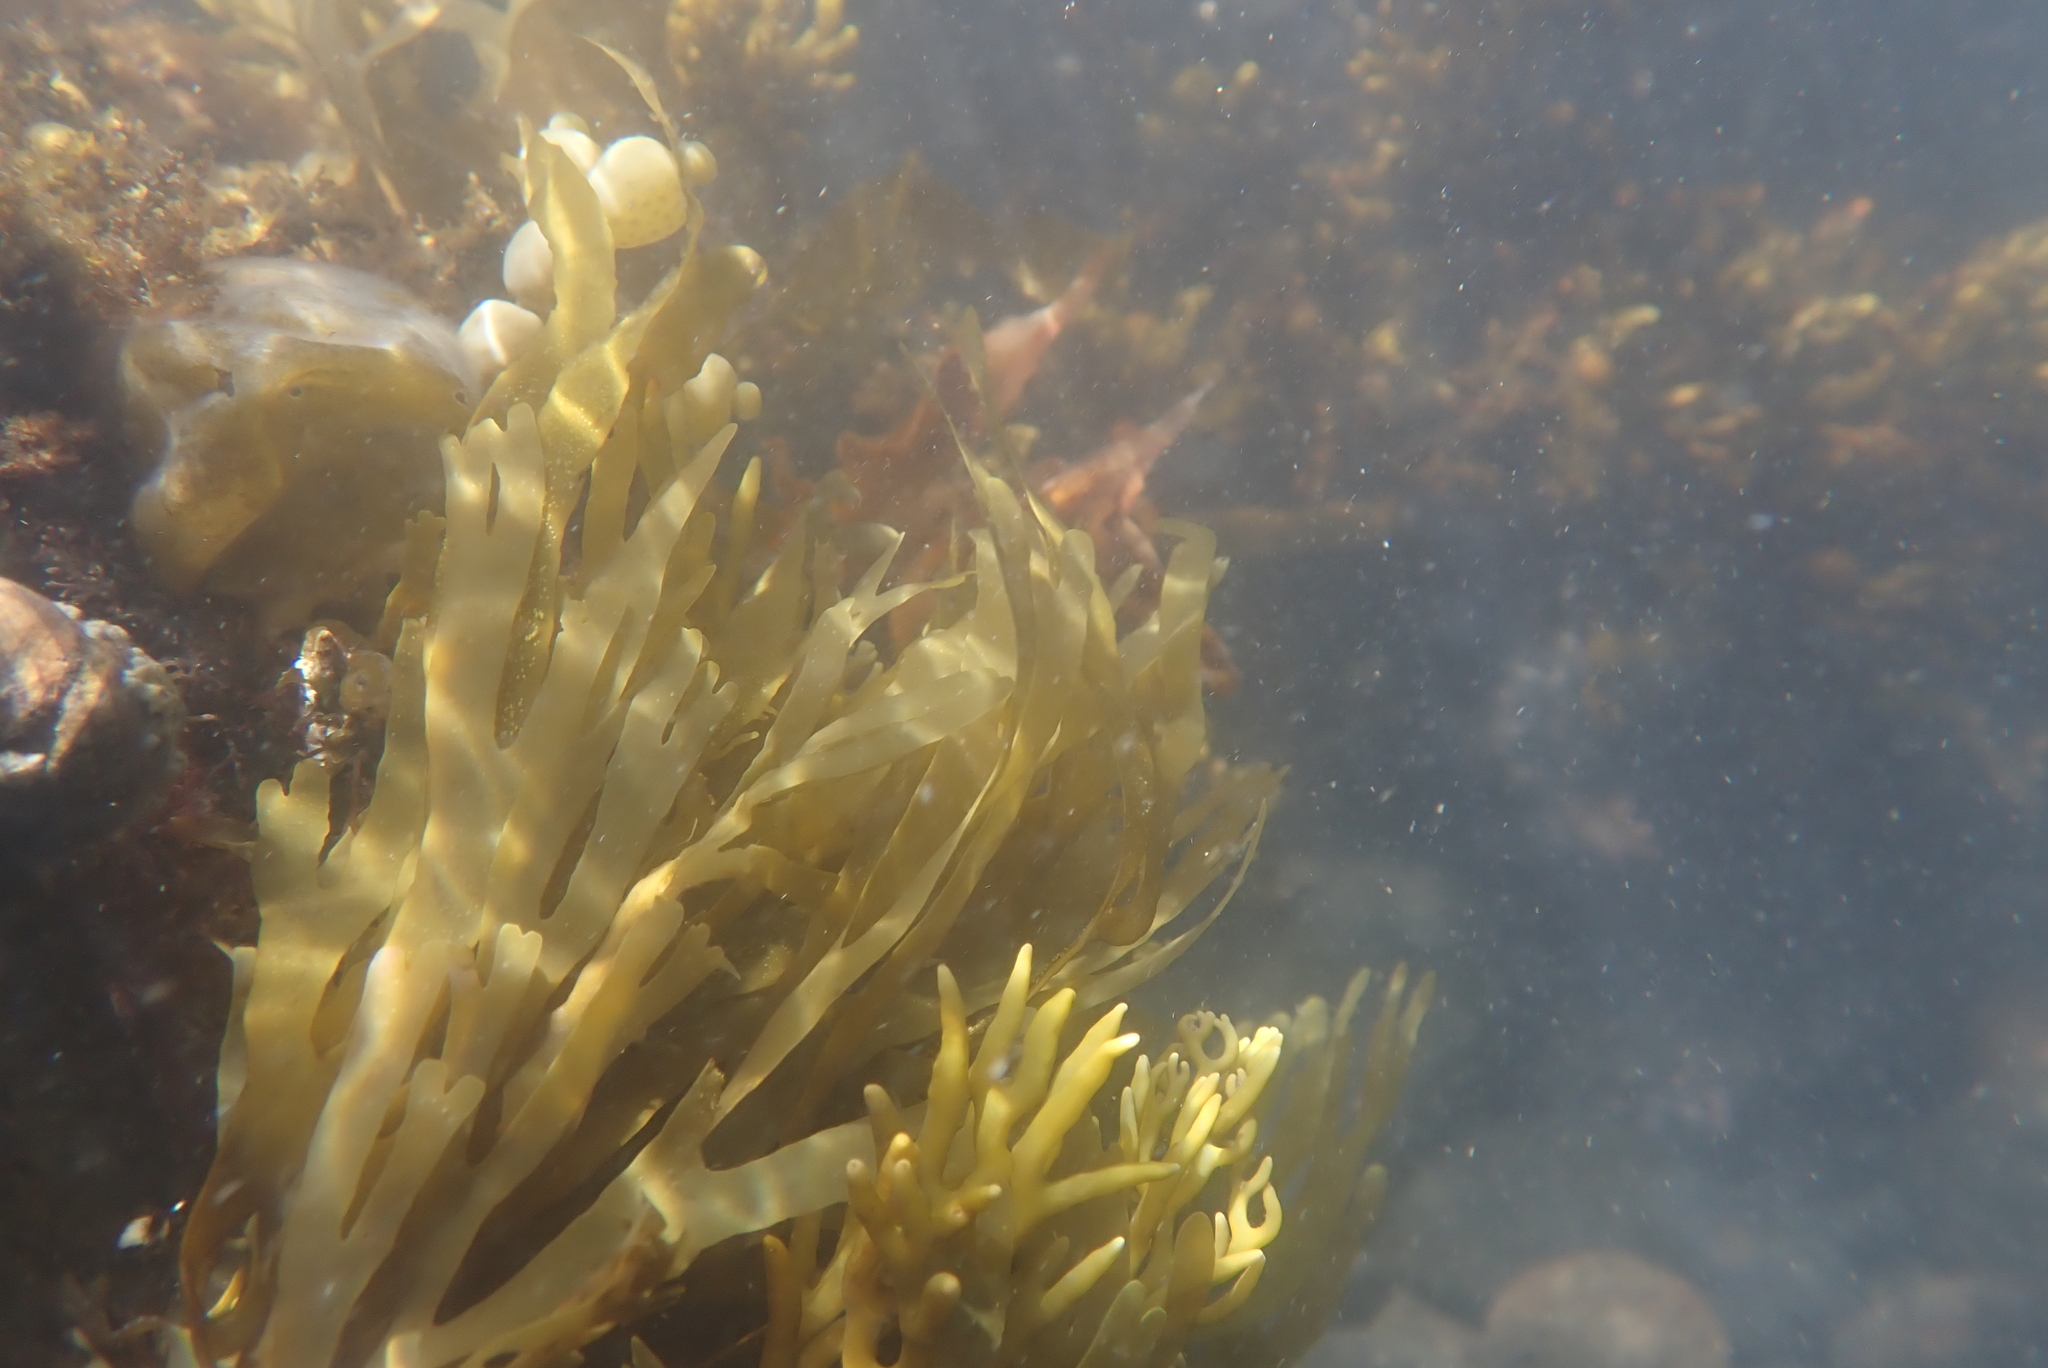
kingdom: Chromista
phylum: Ochrophyta
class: Phaeophyceae
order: Dictyotales
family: Dictyotaceae
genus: Dictyota
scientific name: Dictyota kunthii
